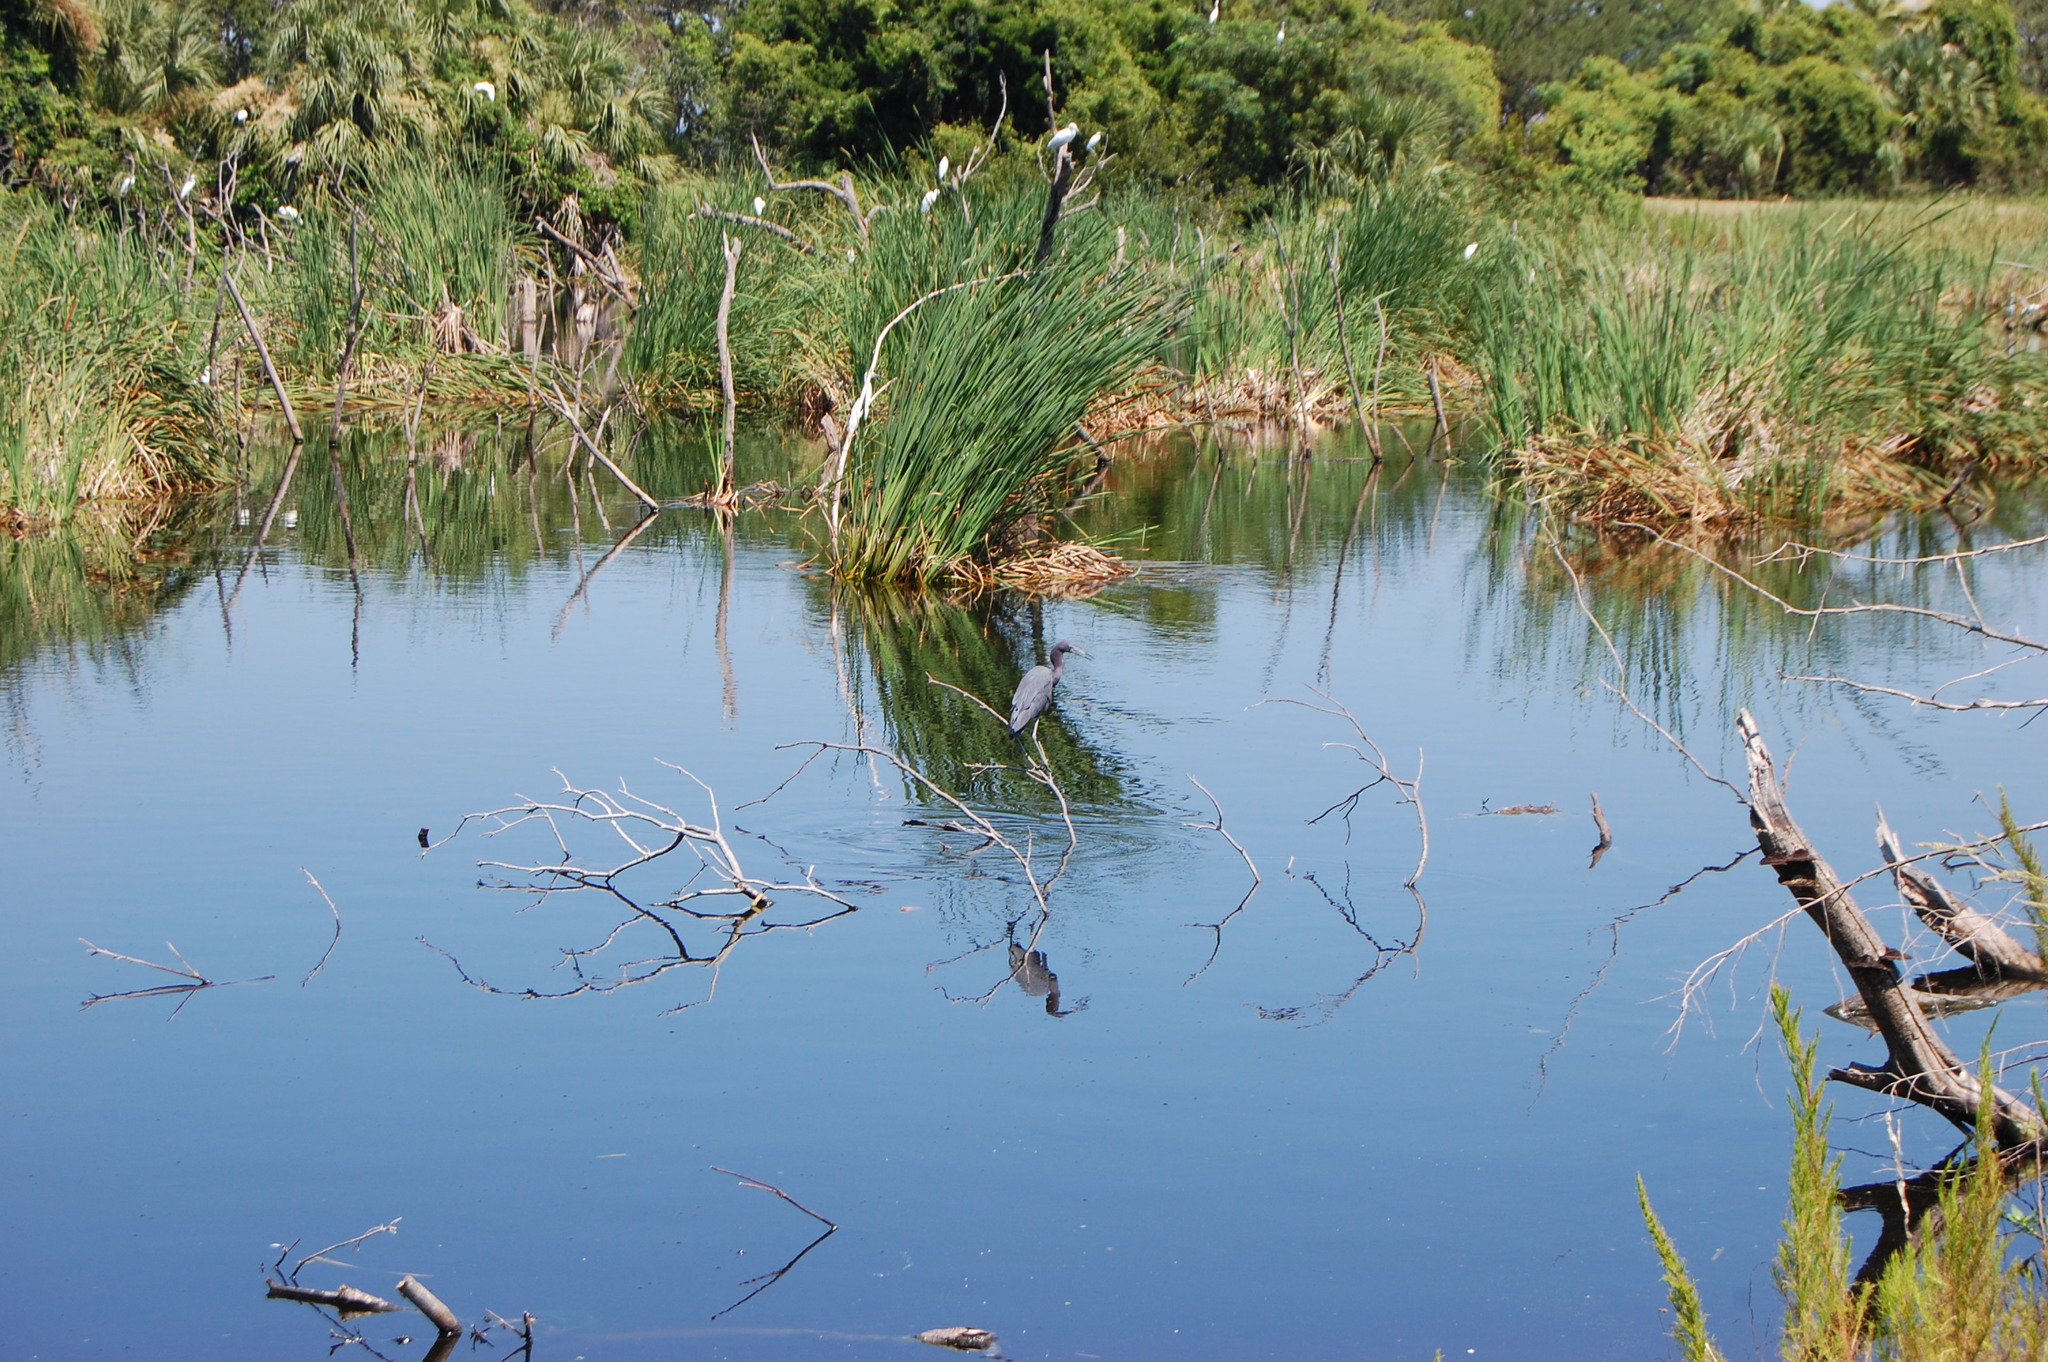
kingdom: Animalia
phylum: Chordata
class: Aves
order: Pelecaniformes
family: Ardeidae
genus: Egretta
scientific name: Egretta caerulea
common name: Little blue heron
